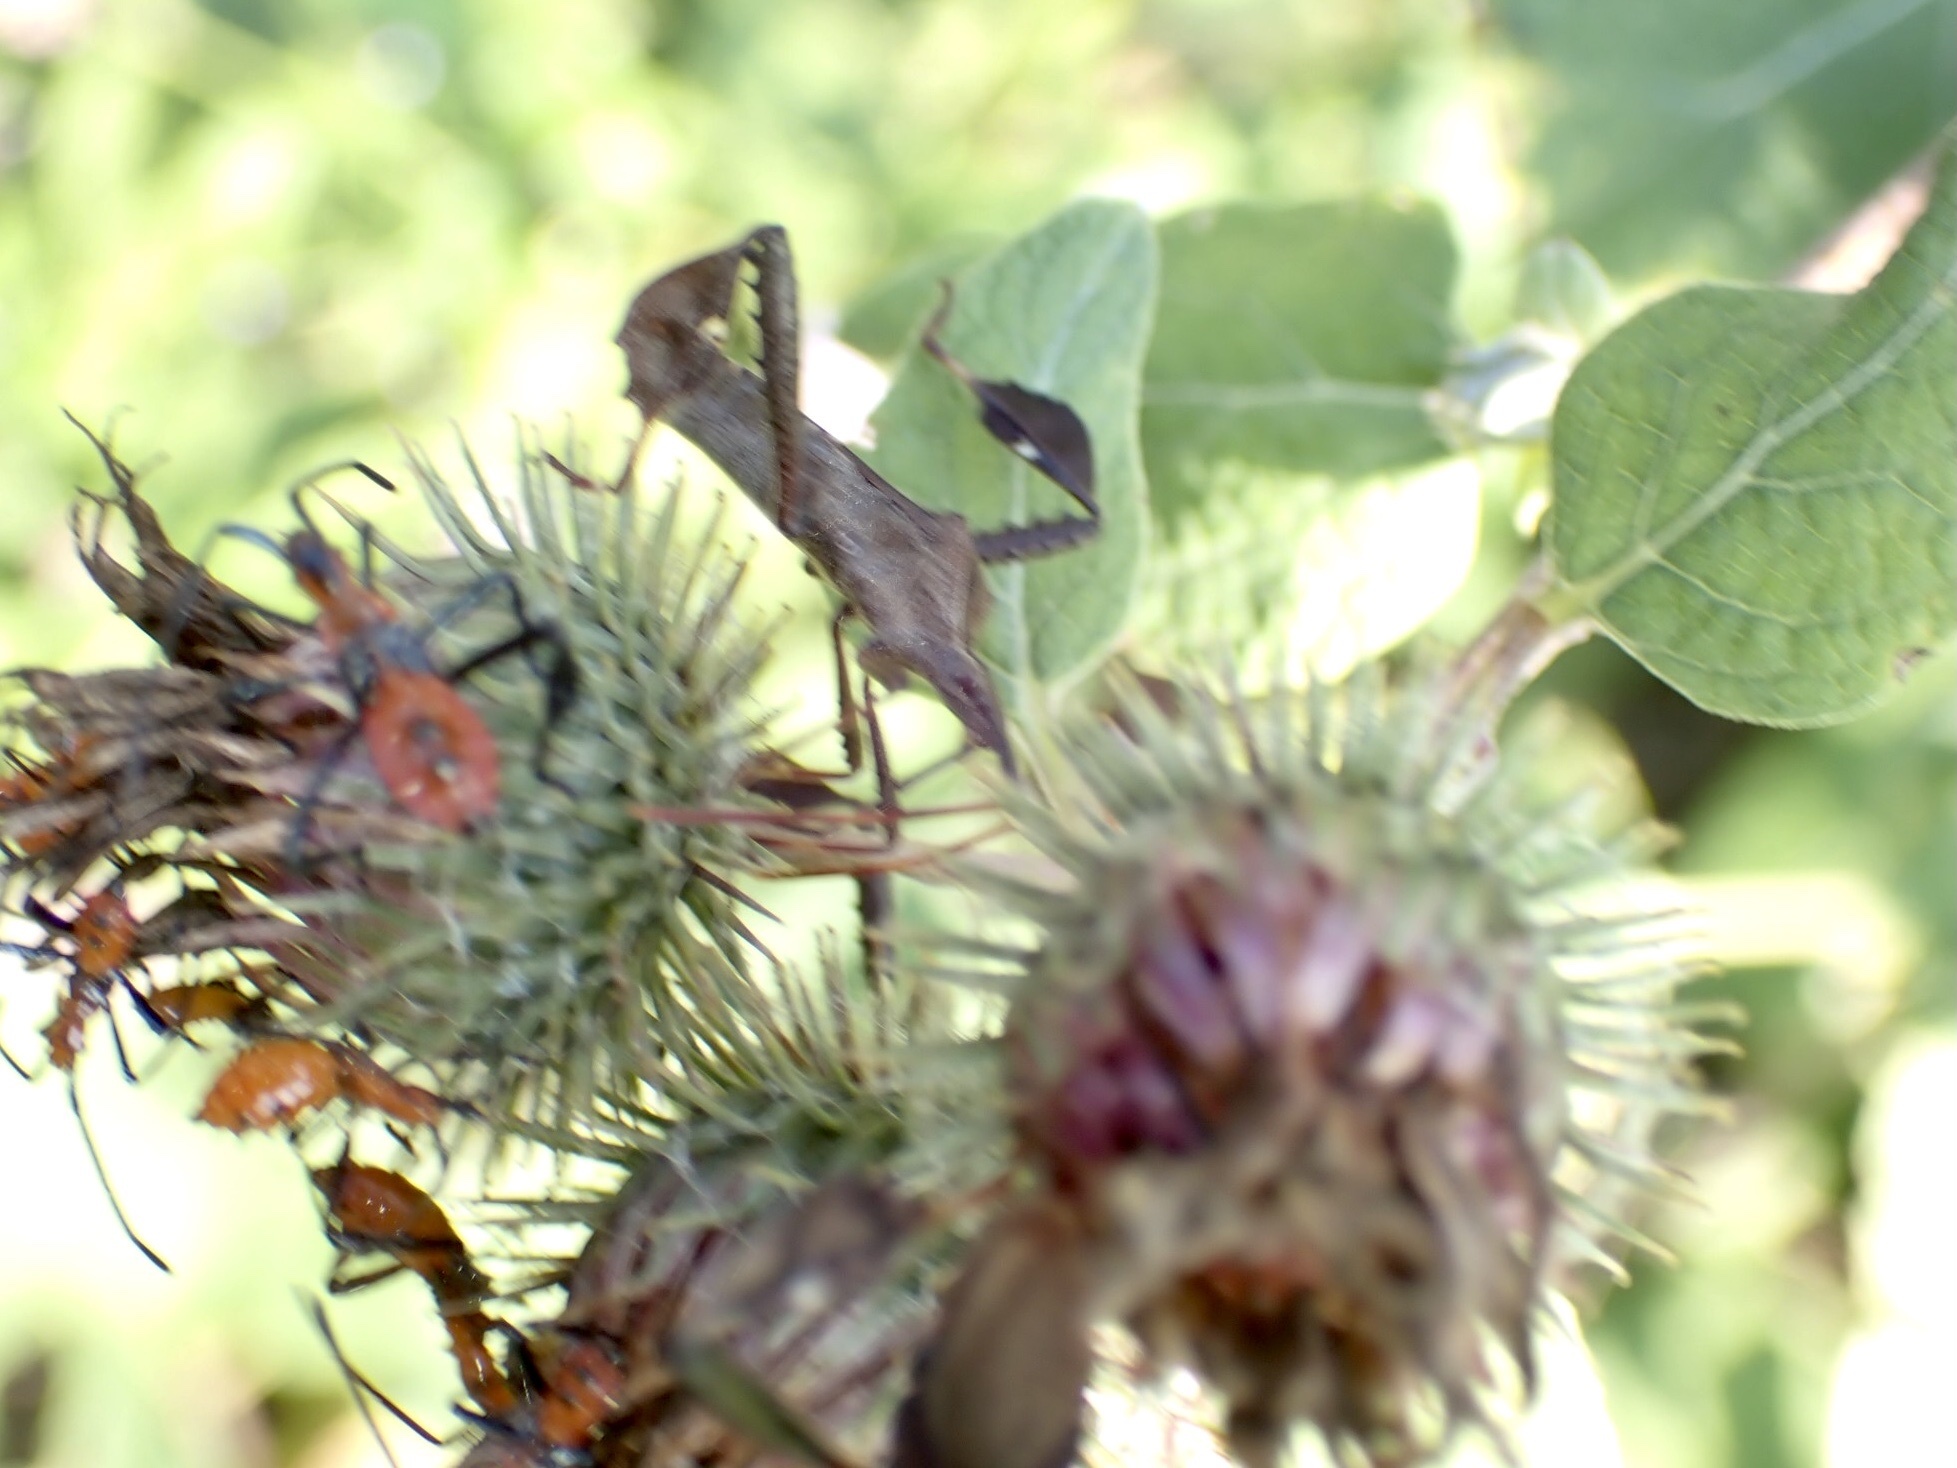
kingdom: Animalia
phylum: Arthropoda
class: Insecta
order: Hemiptera
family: Coreidae
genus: Leptoglossus
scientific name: Leptoglossus phyllopus
